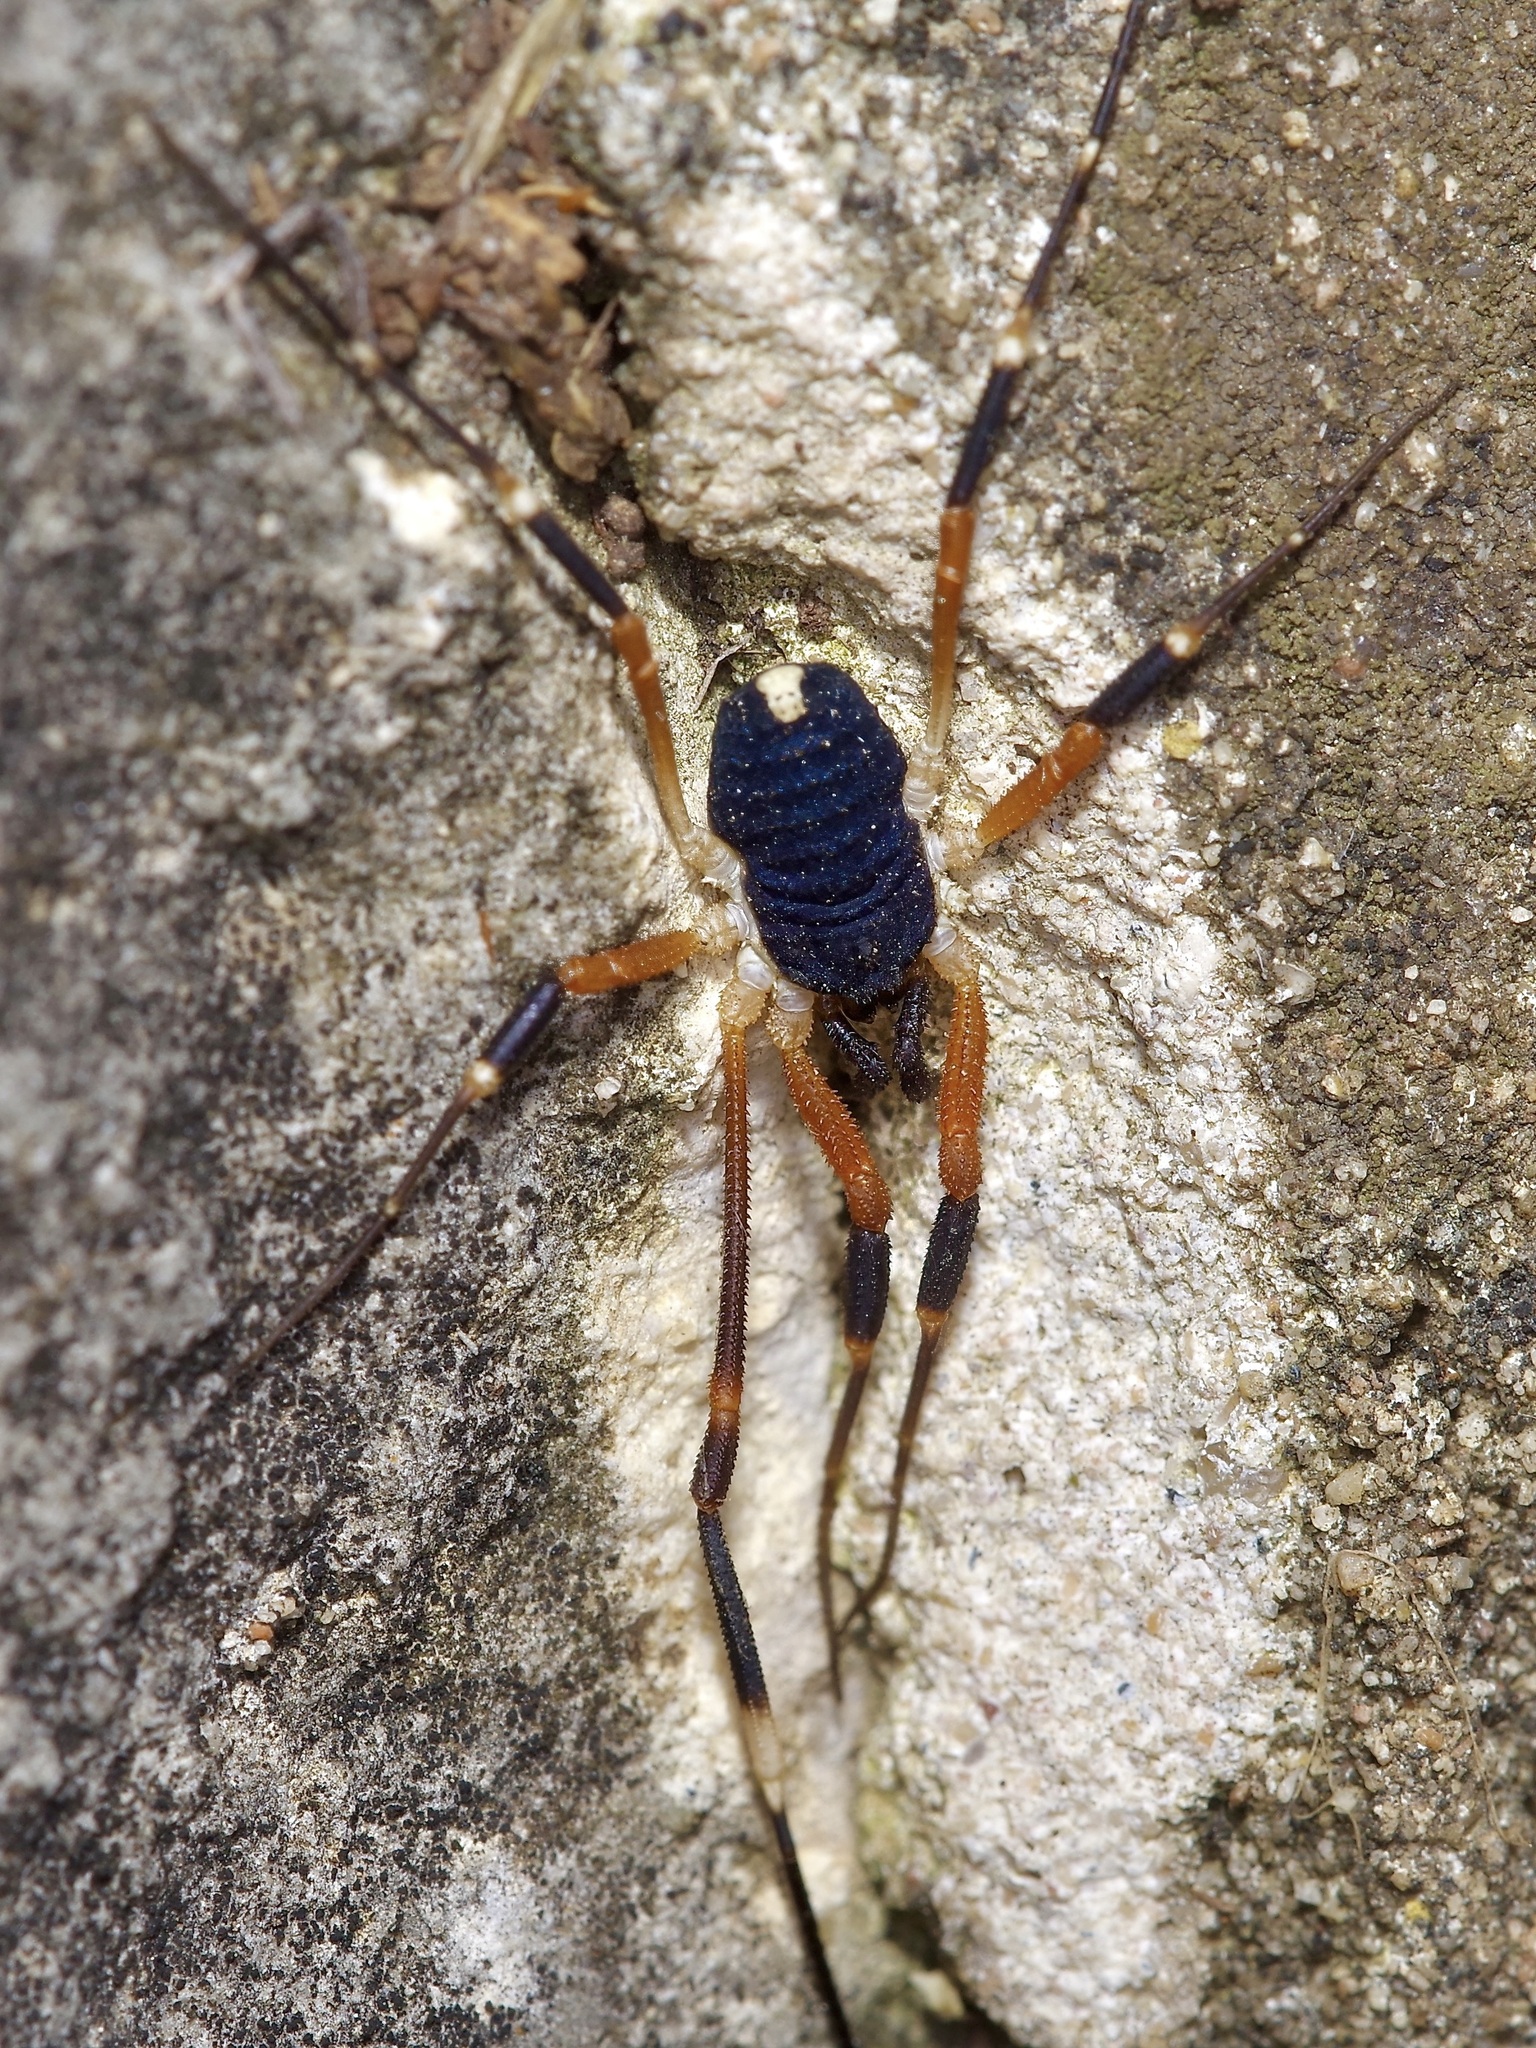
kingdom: Animalia
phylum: Arthropoda
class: Arachnida
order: Opiliones
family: Globipedidae
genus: Dalquestia
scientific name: Dalquestia formosa
